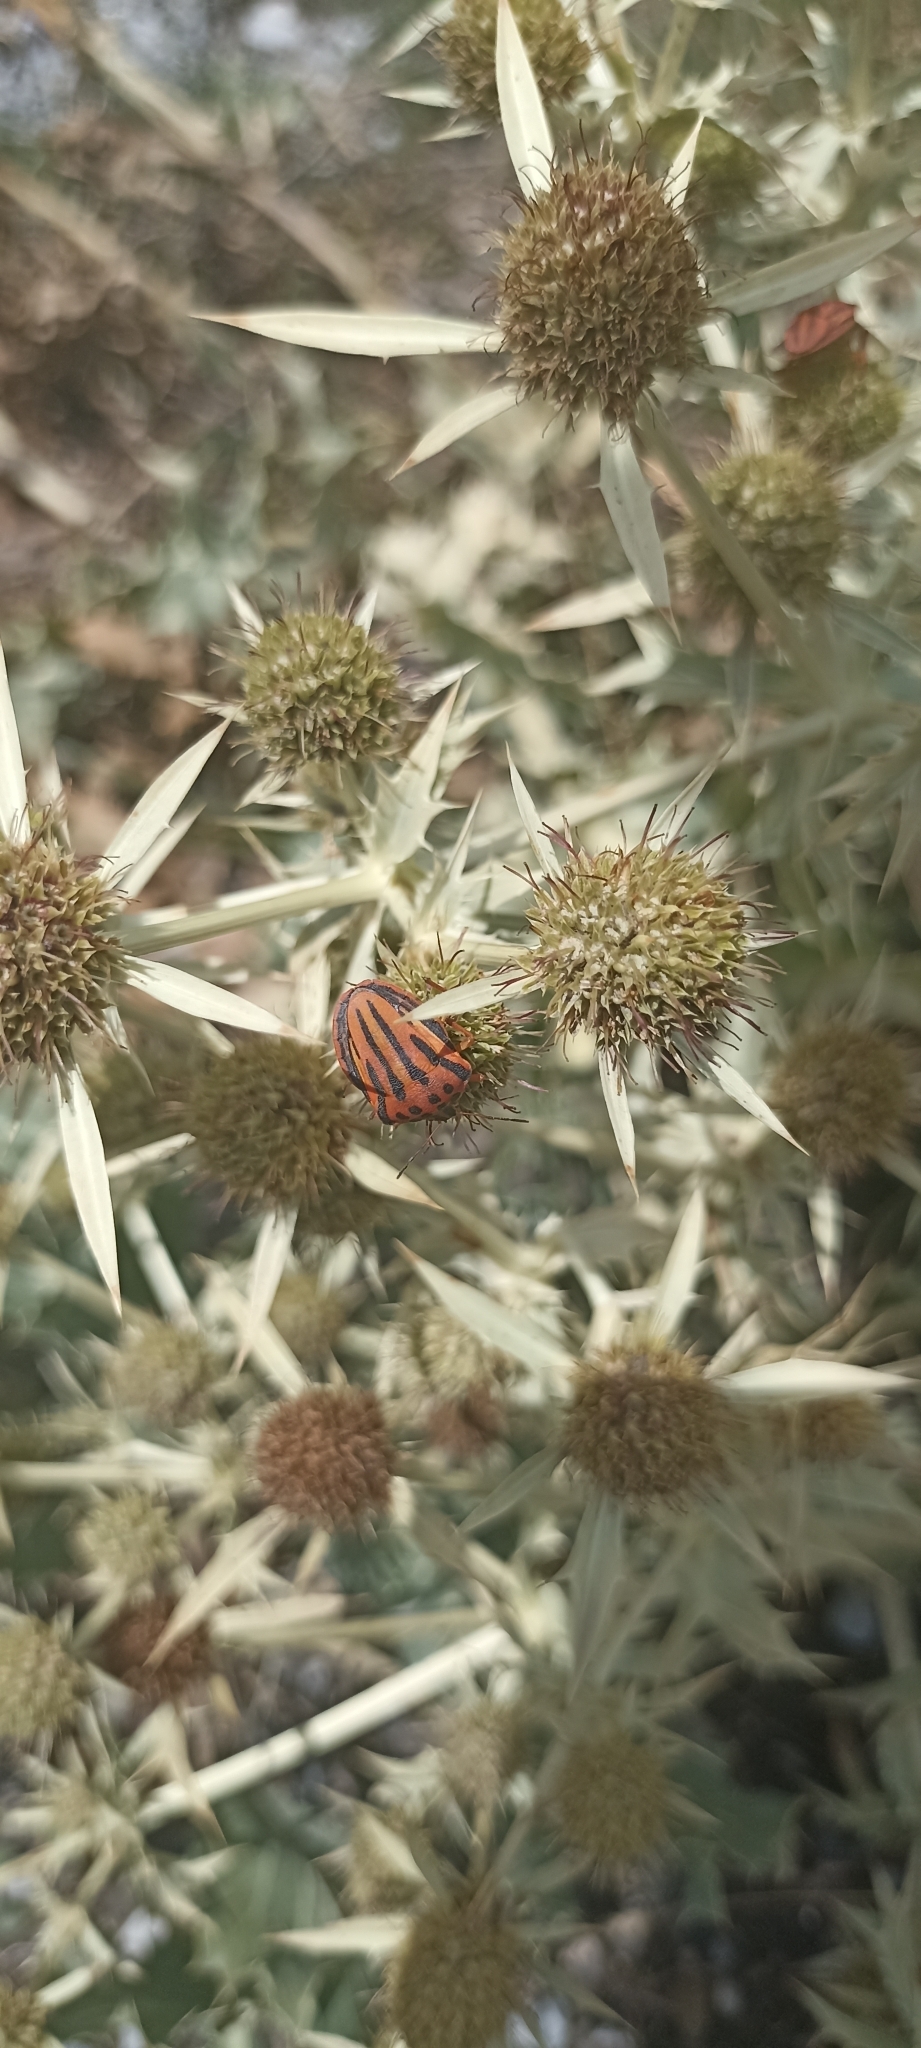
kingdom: Animalia
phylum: Arthropoda
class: Insecta
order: Hemiptera
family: Pentatomidae
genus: Graphosoma
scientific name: Graphosoma semipunctatum
